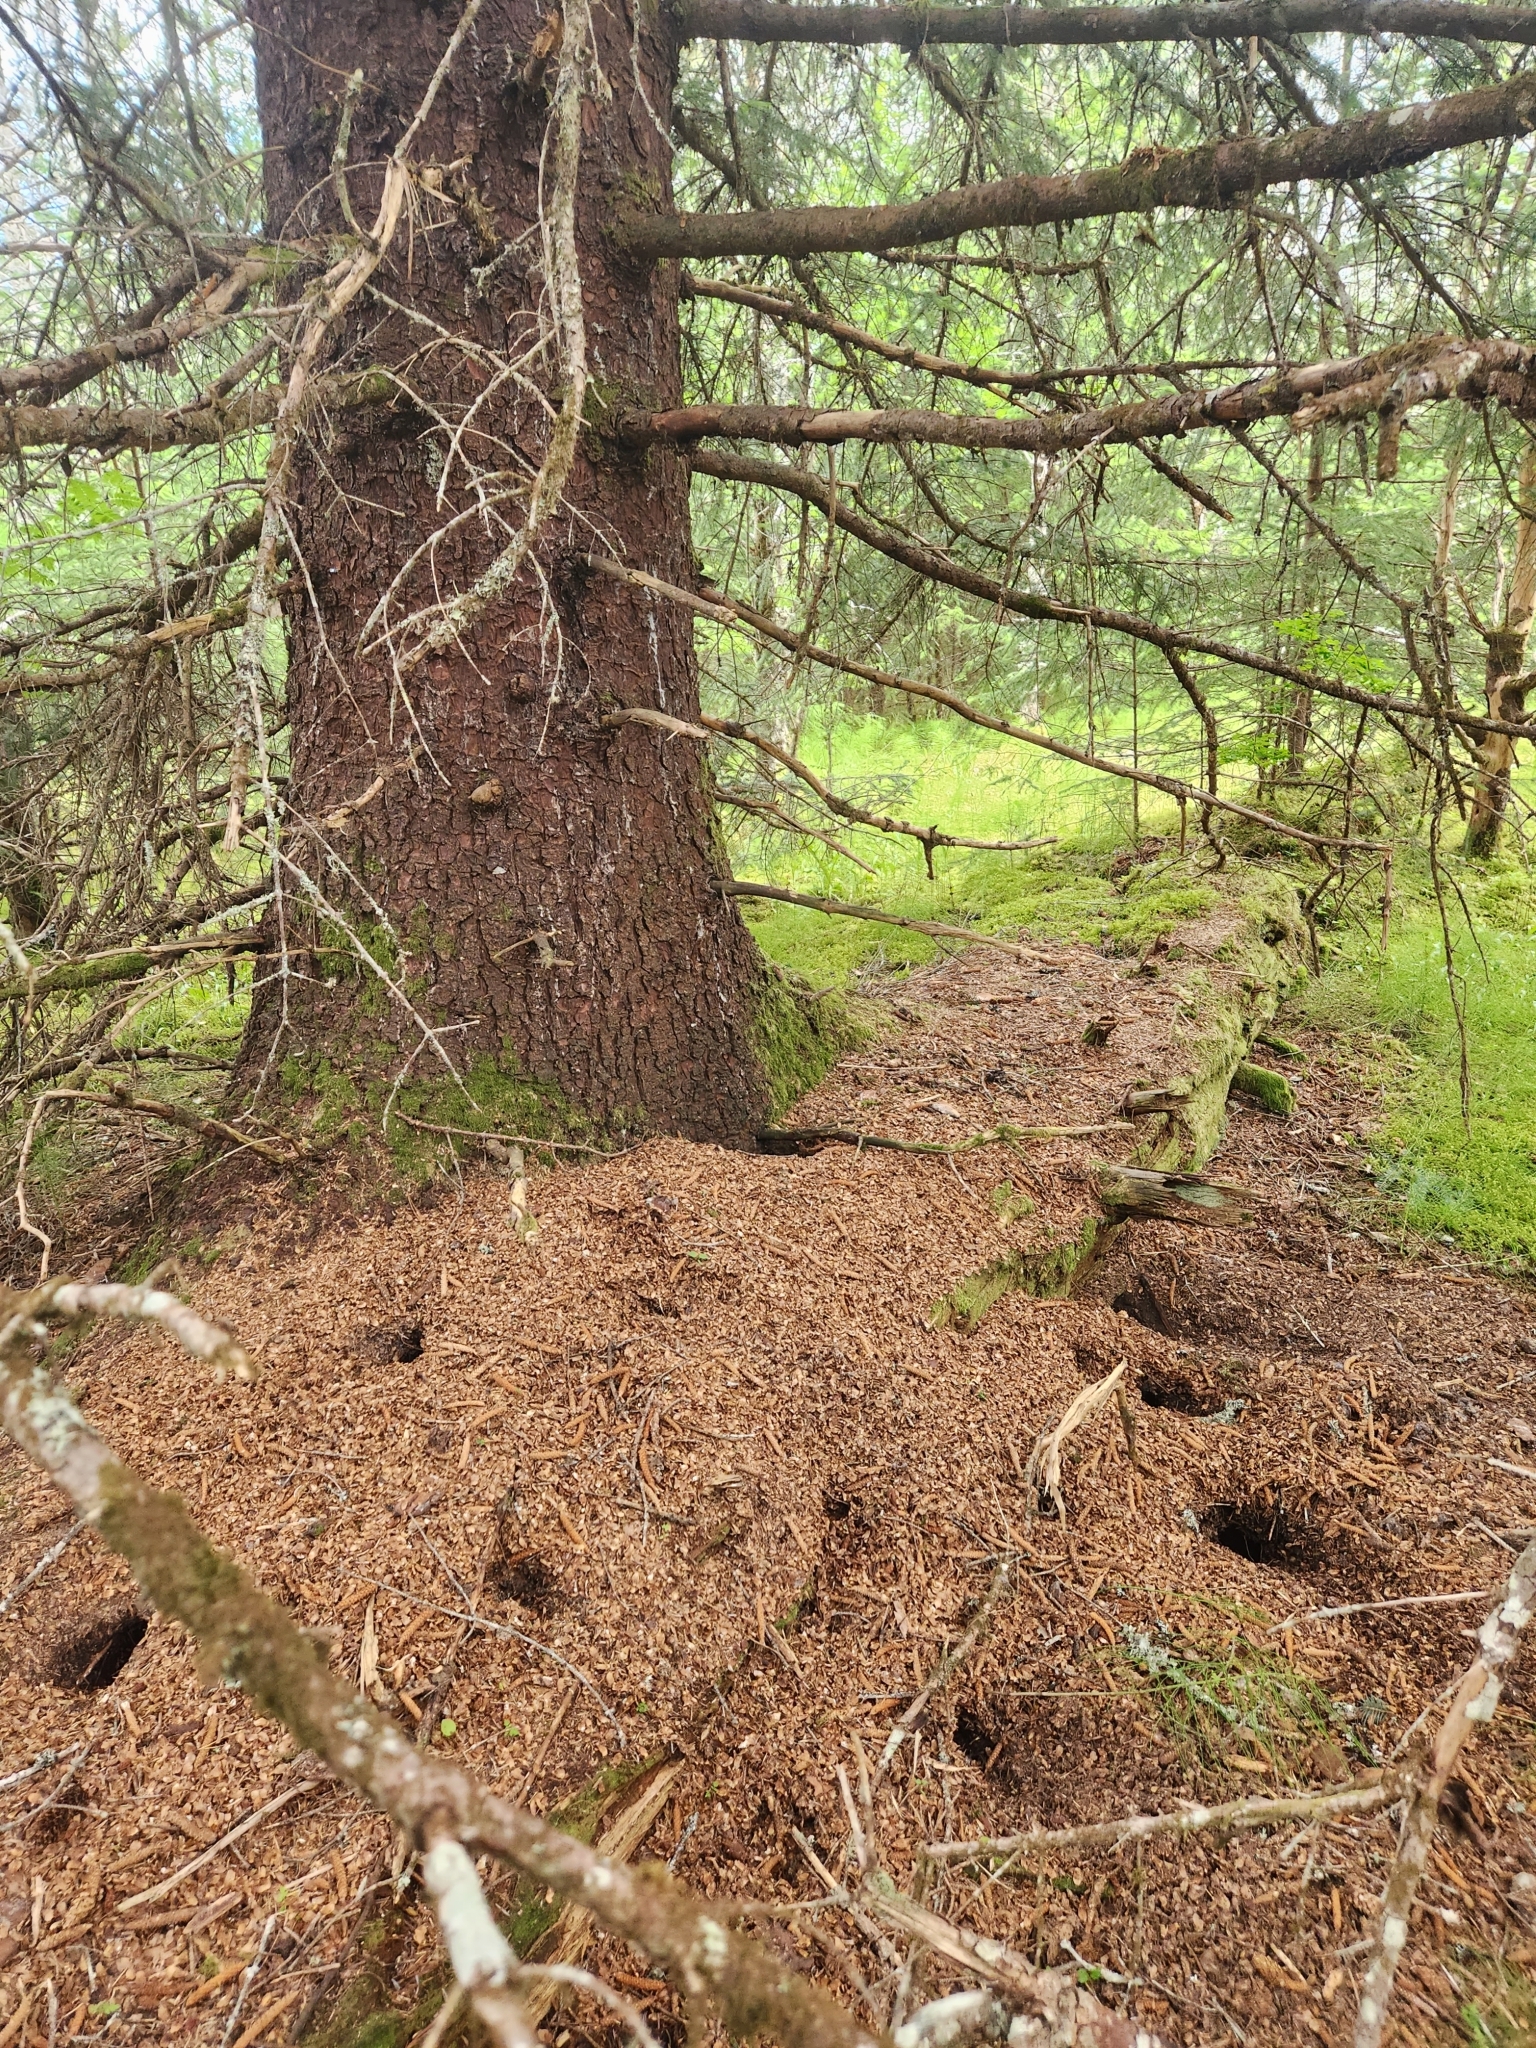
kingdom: Plantae
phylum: Tracheophyta
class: Pinopsida
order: Pinales
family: Pinaceae
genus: Picea
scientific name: Picea sitchensis
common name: Sitka spruce
